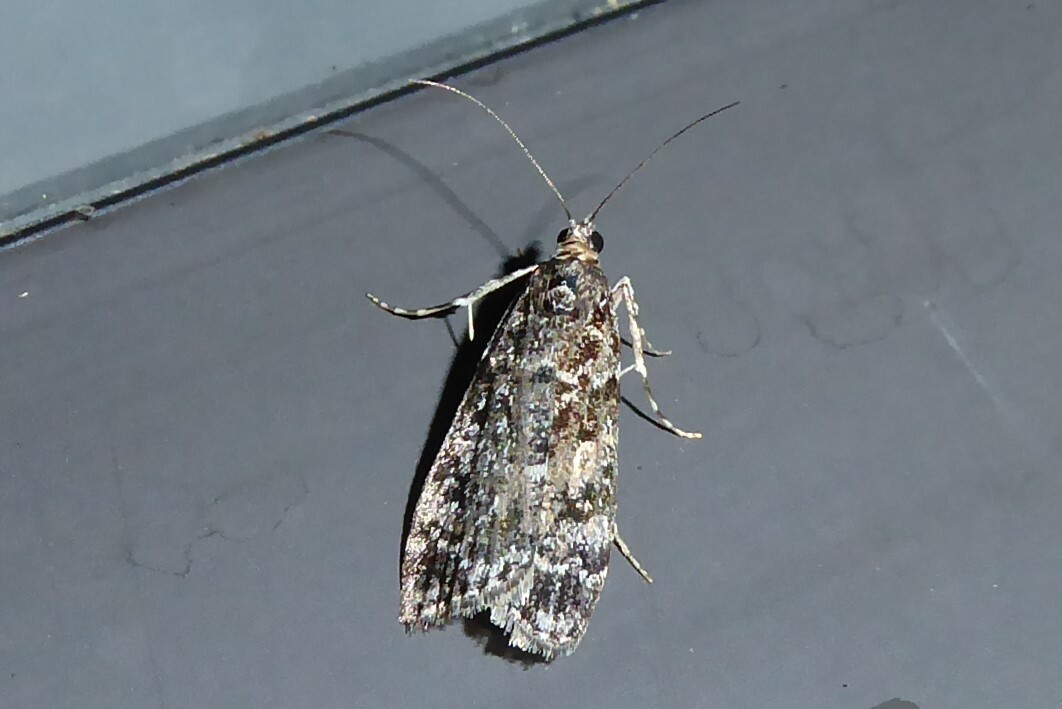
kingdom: Animalia
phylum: Arthropoda
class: Insecta
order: Lepidoptera
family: Crambidae
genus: Eudonia
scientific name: Eudonia philerga
